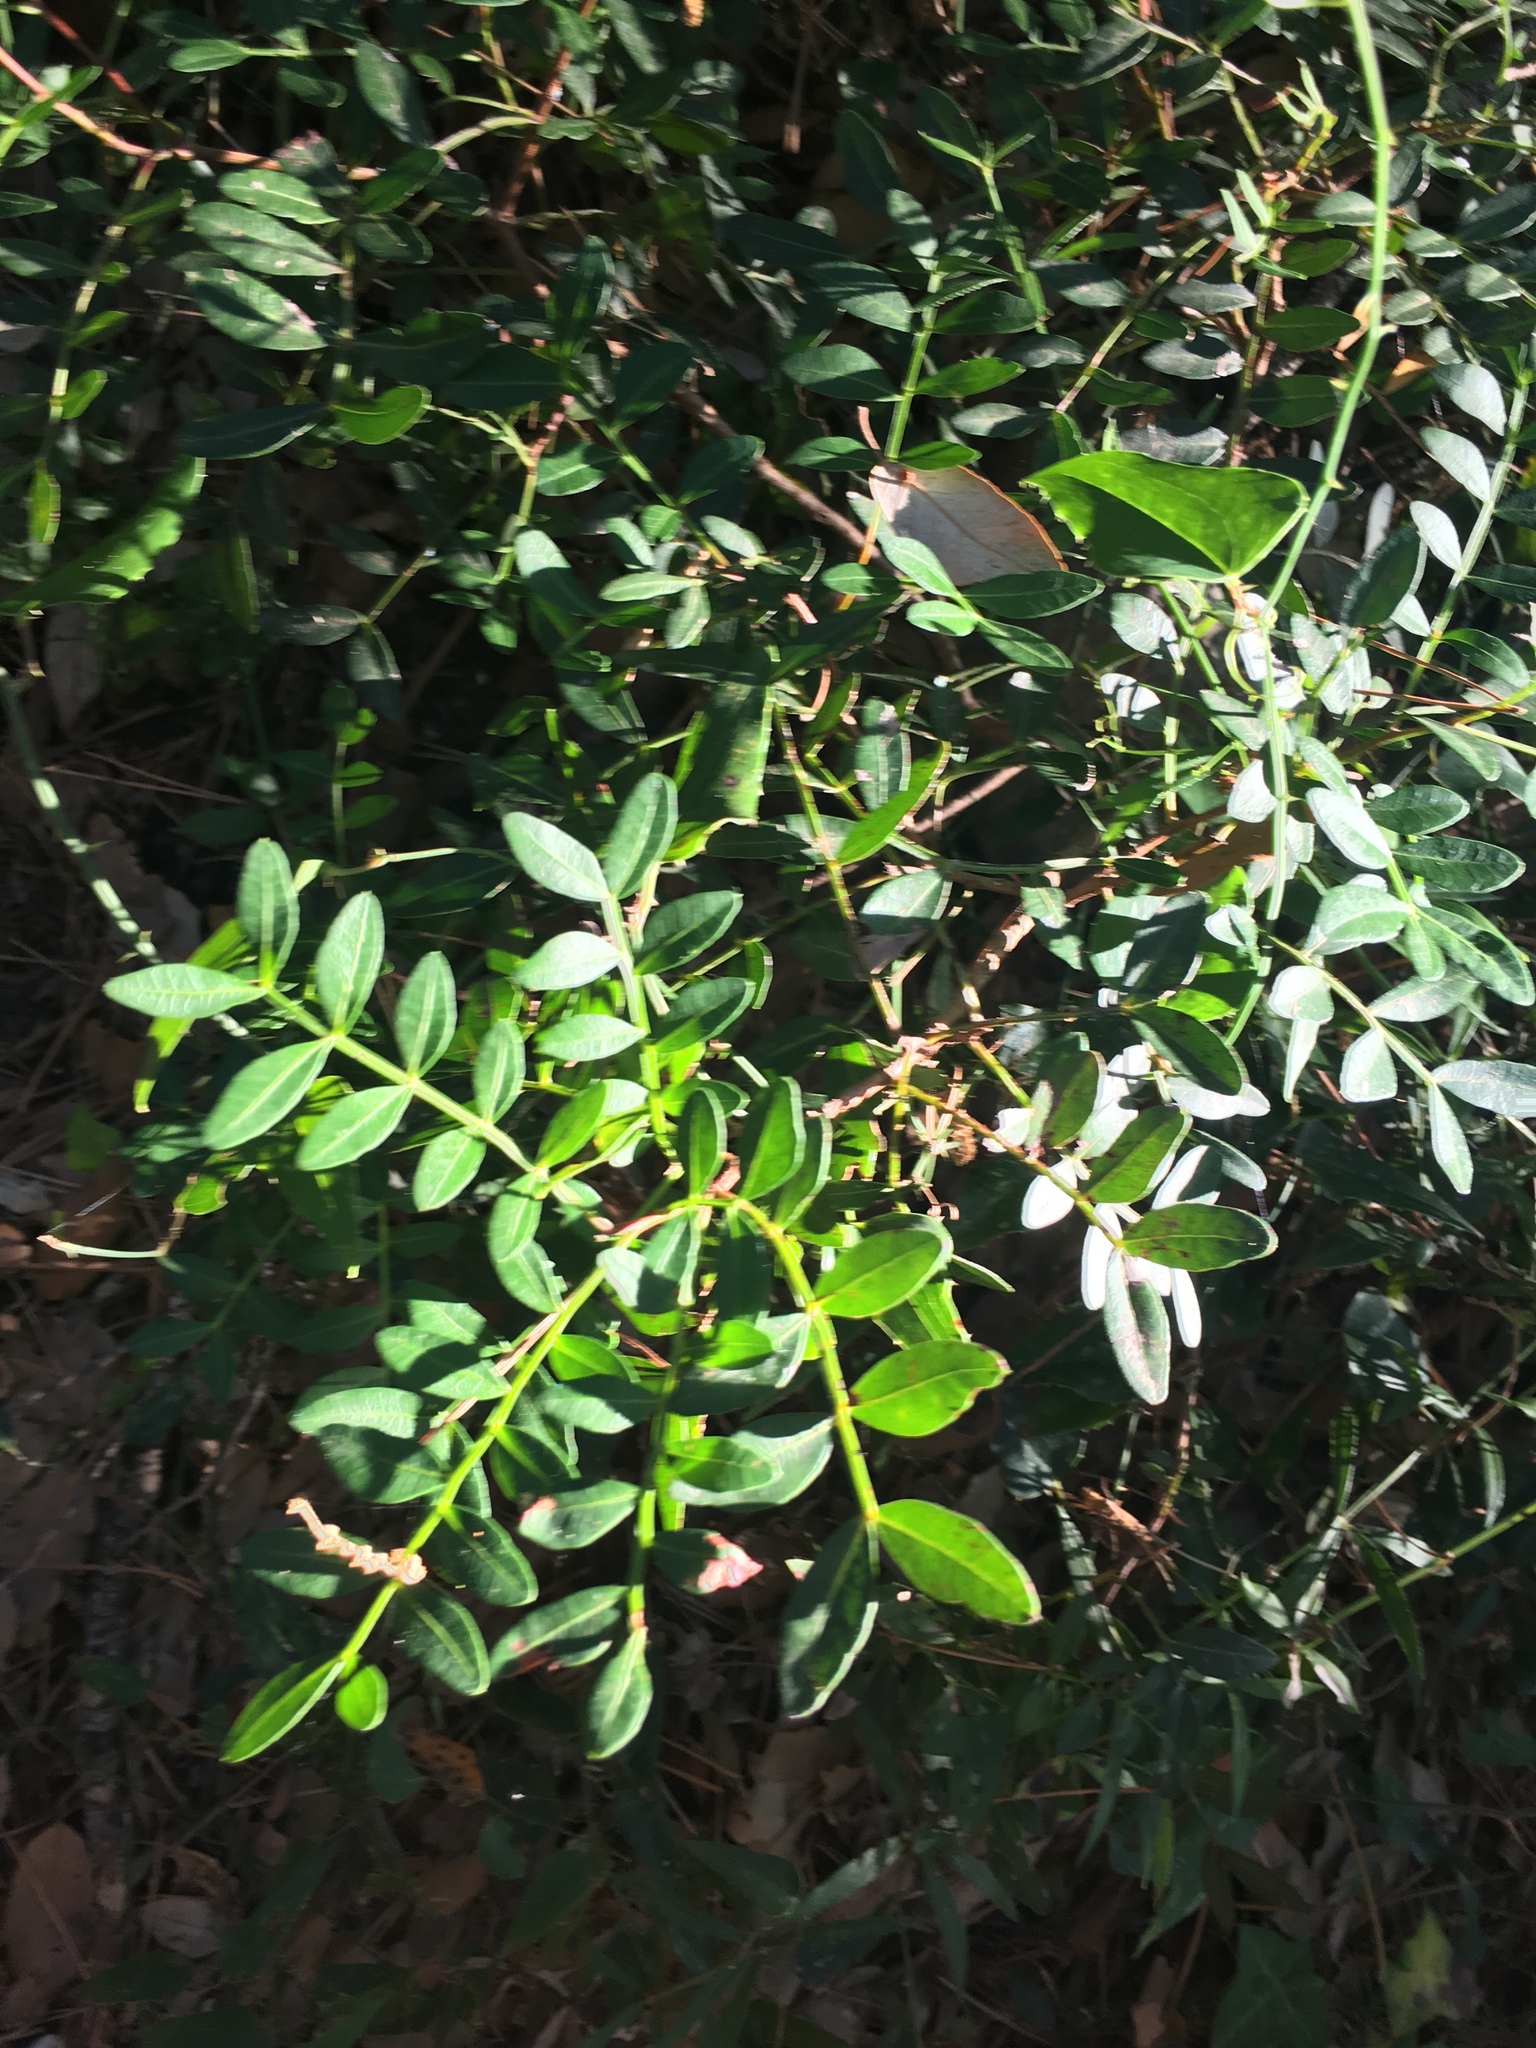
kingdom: Plantae
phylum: Tracheophyta
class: Magnoliopsida
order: Sapindales
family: Anacardiaceae
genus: Pistacia
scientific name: Pistacia lentiscus
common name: Lentisk
